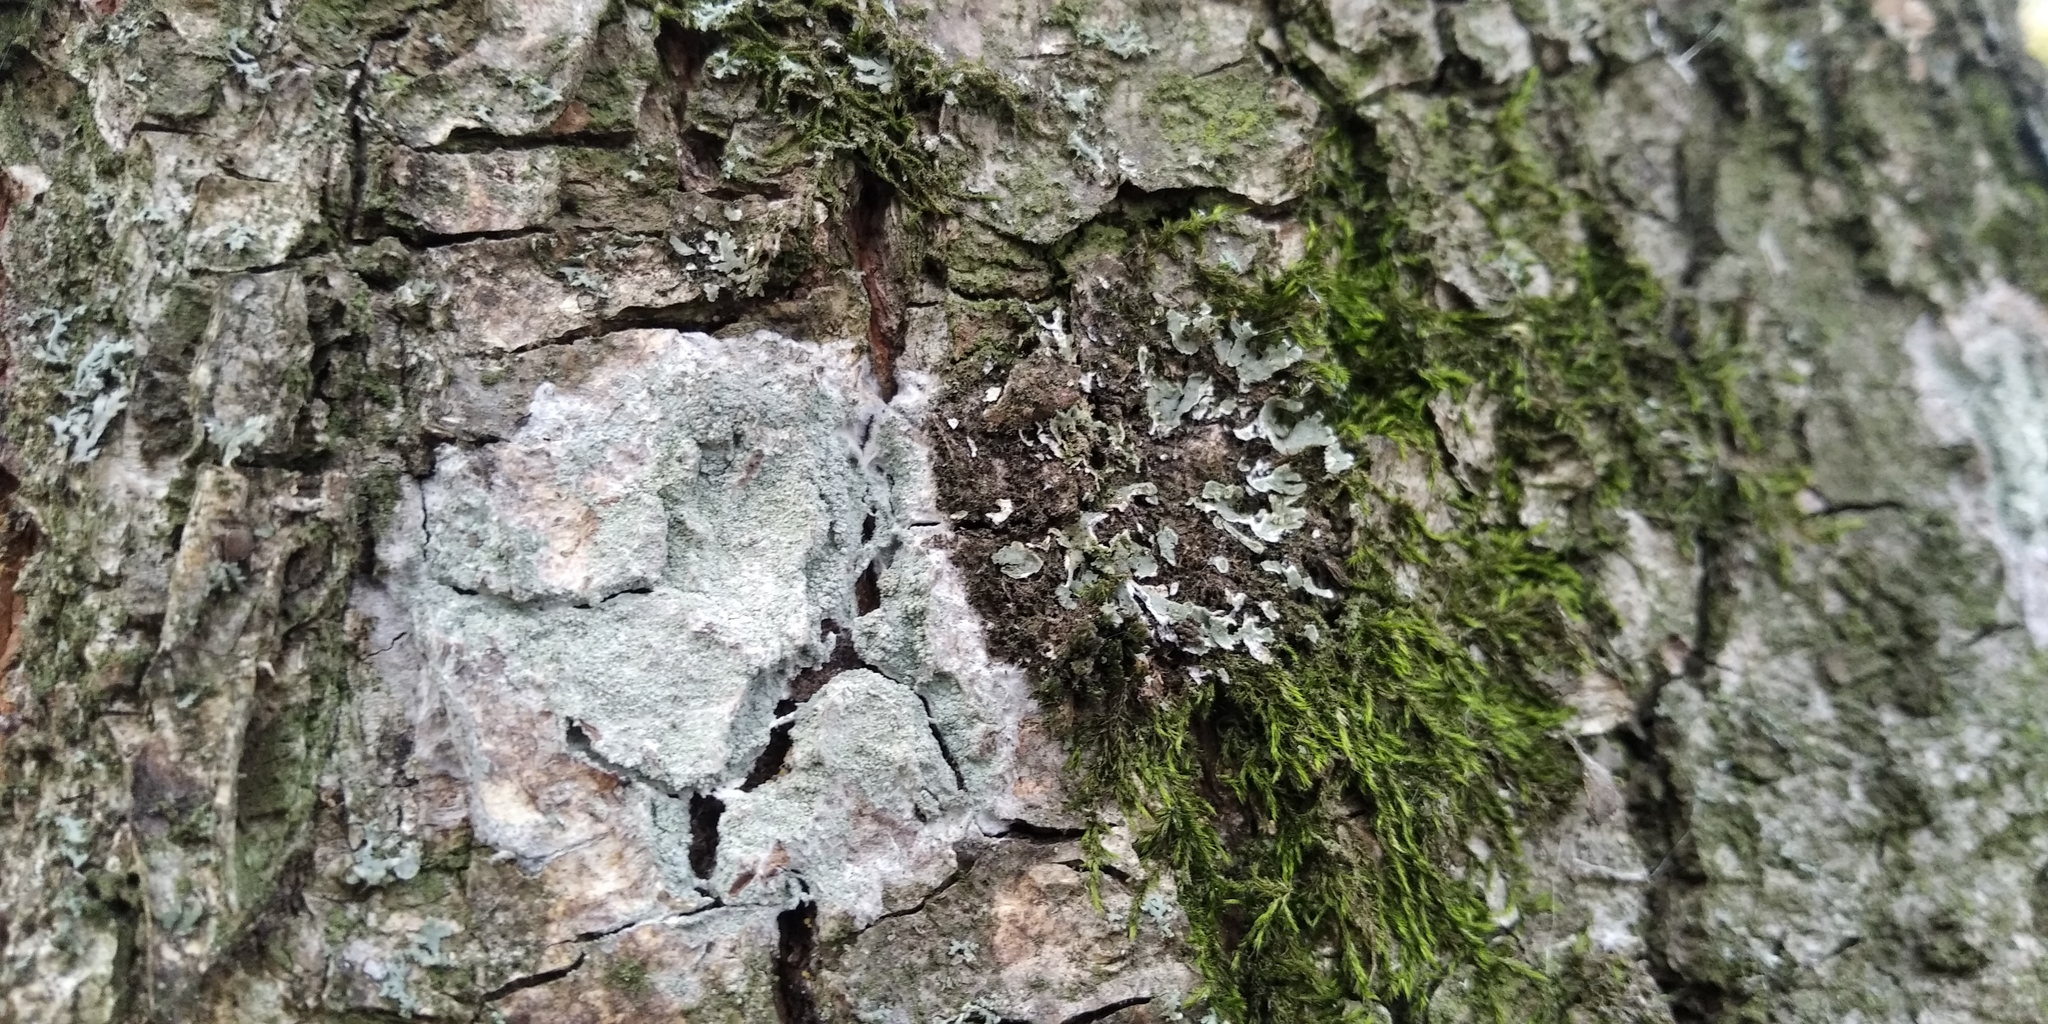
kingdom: Fungi
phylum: Ascomycota
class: Lecanoromycetes
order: Ostropales
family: Phlyctidaceae
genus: Phlyctis
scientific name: Phlyctis argena
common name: Whitewash lichen
